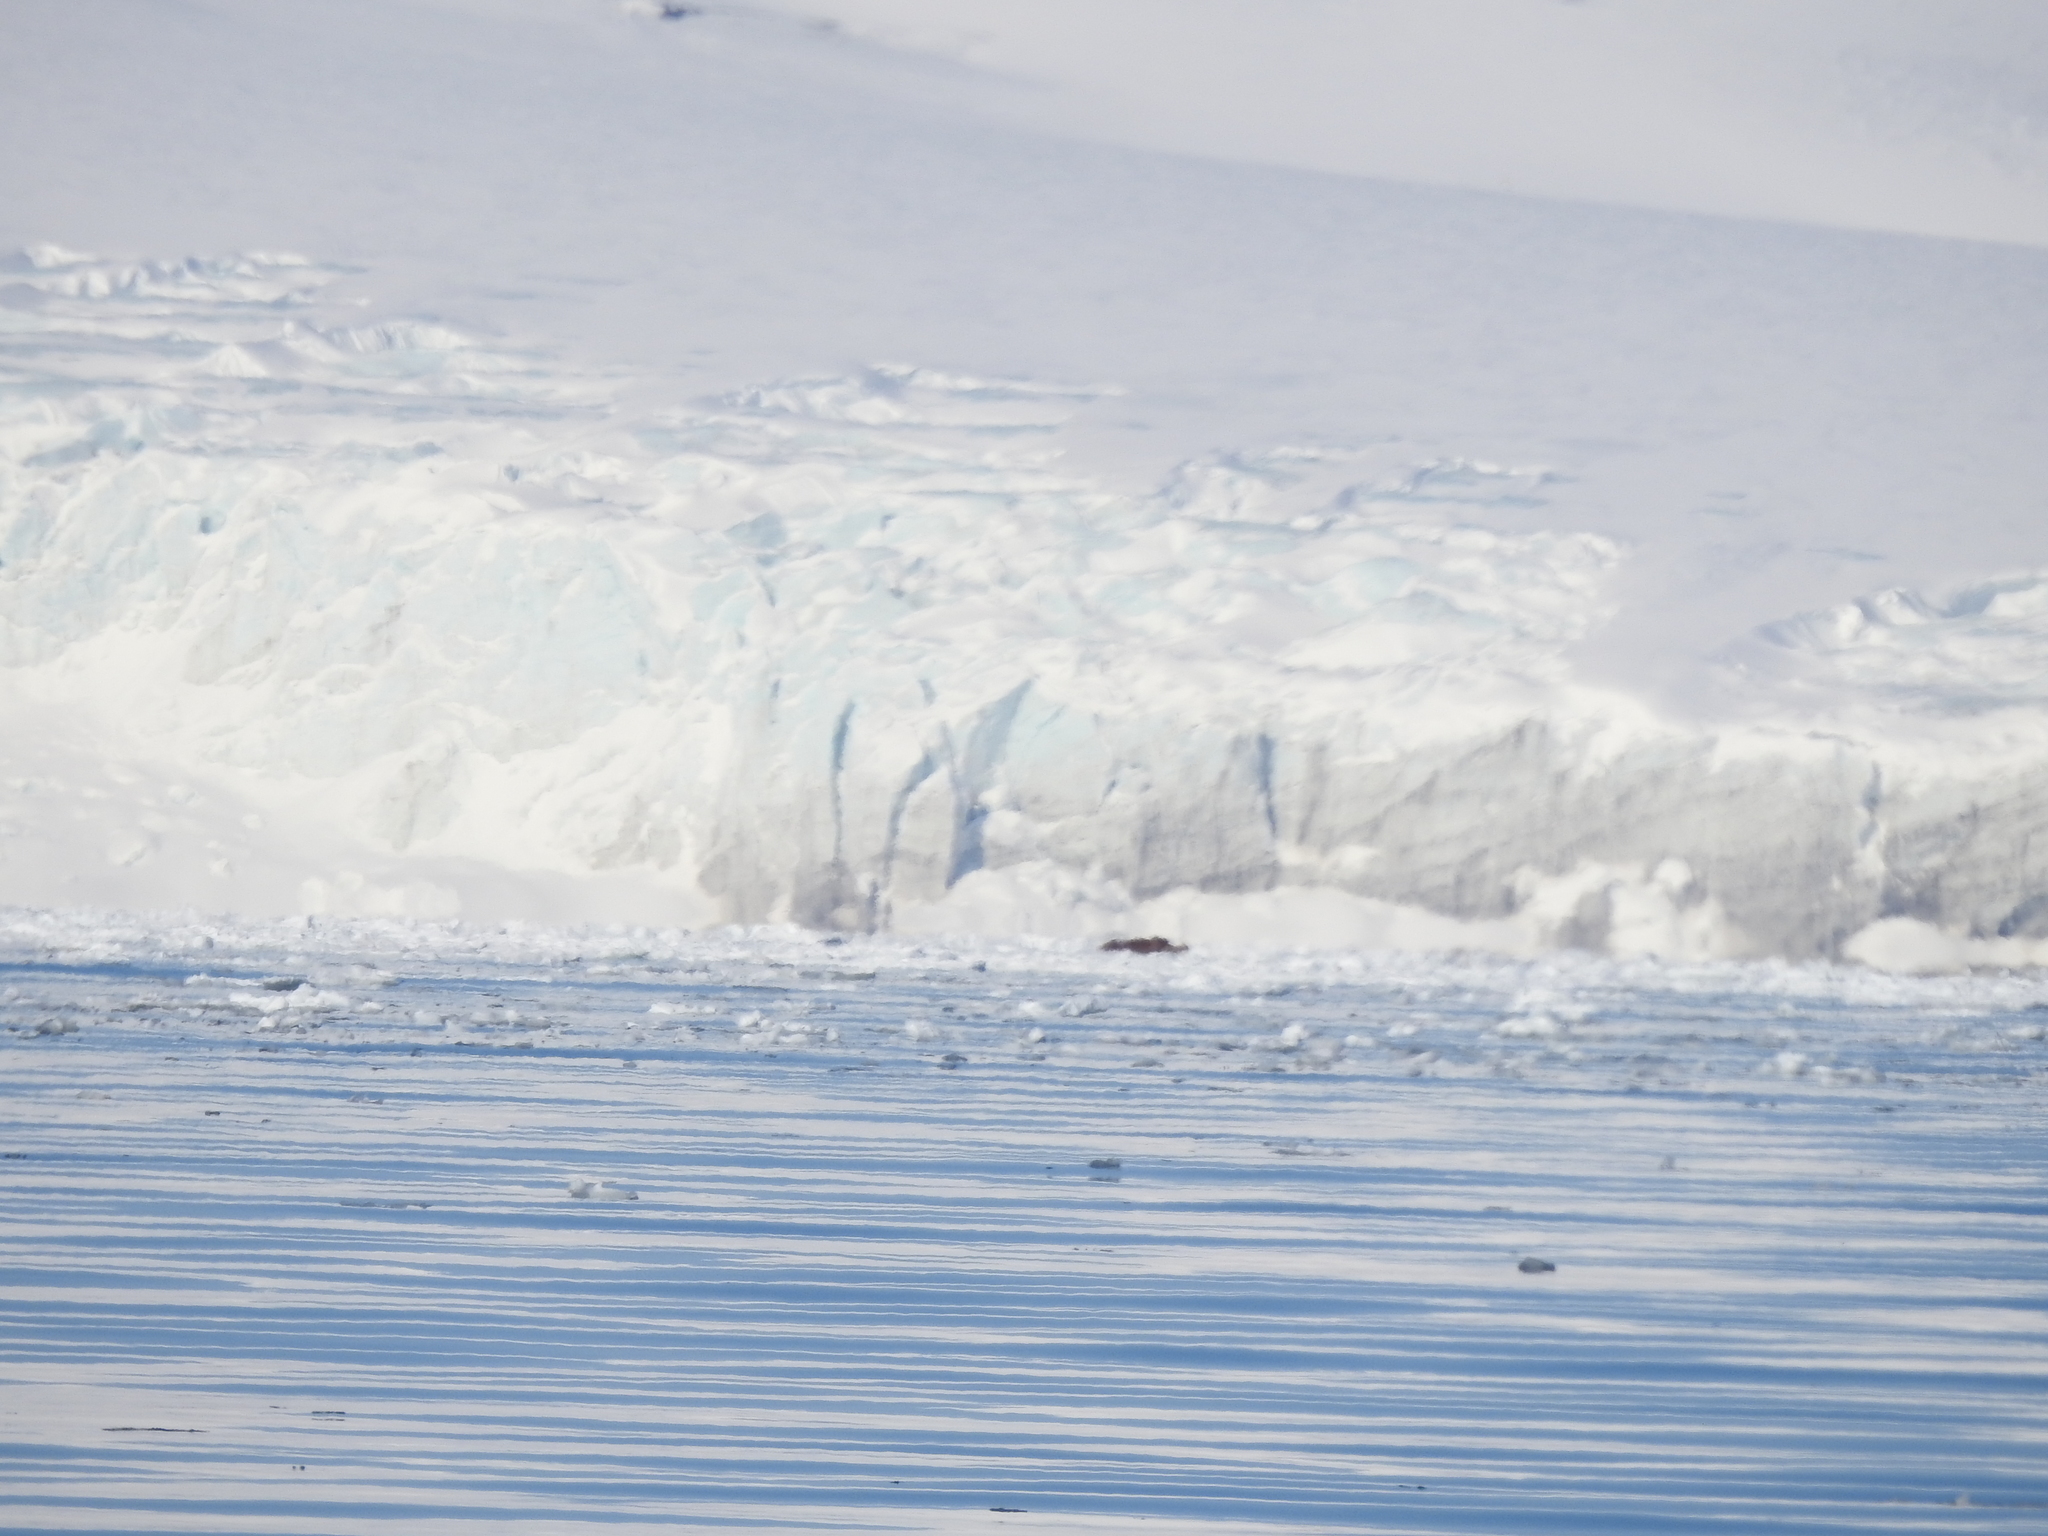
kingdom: Animalia
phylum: Chordata
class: Mammalia
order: Carnivora
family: Odobenidae
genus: Odobenus
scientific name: Odobenus rosmarus
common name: Walrus
